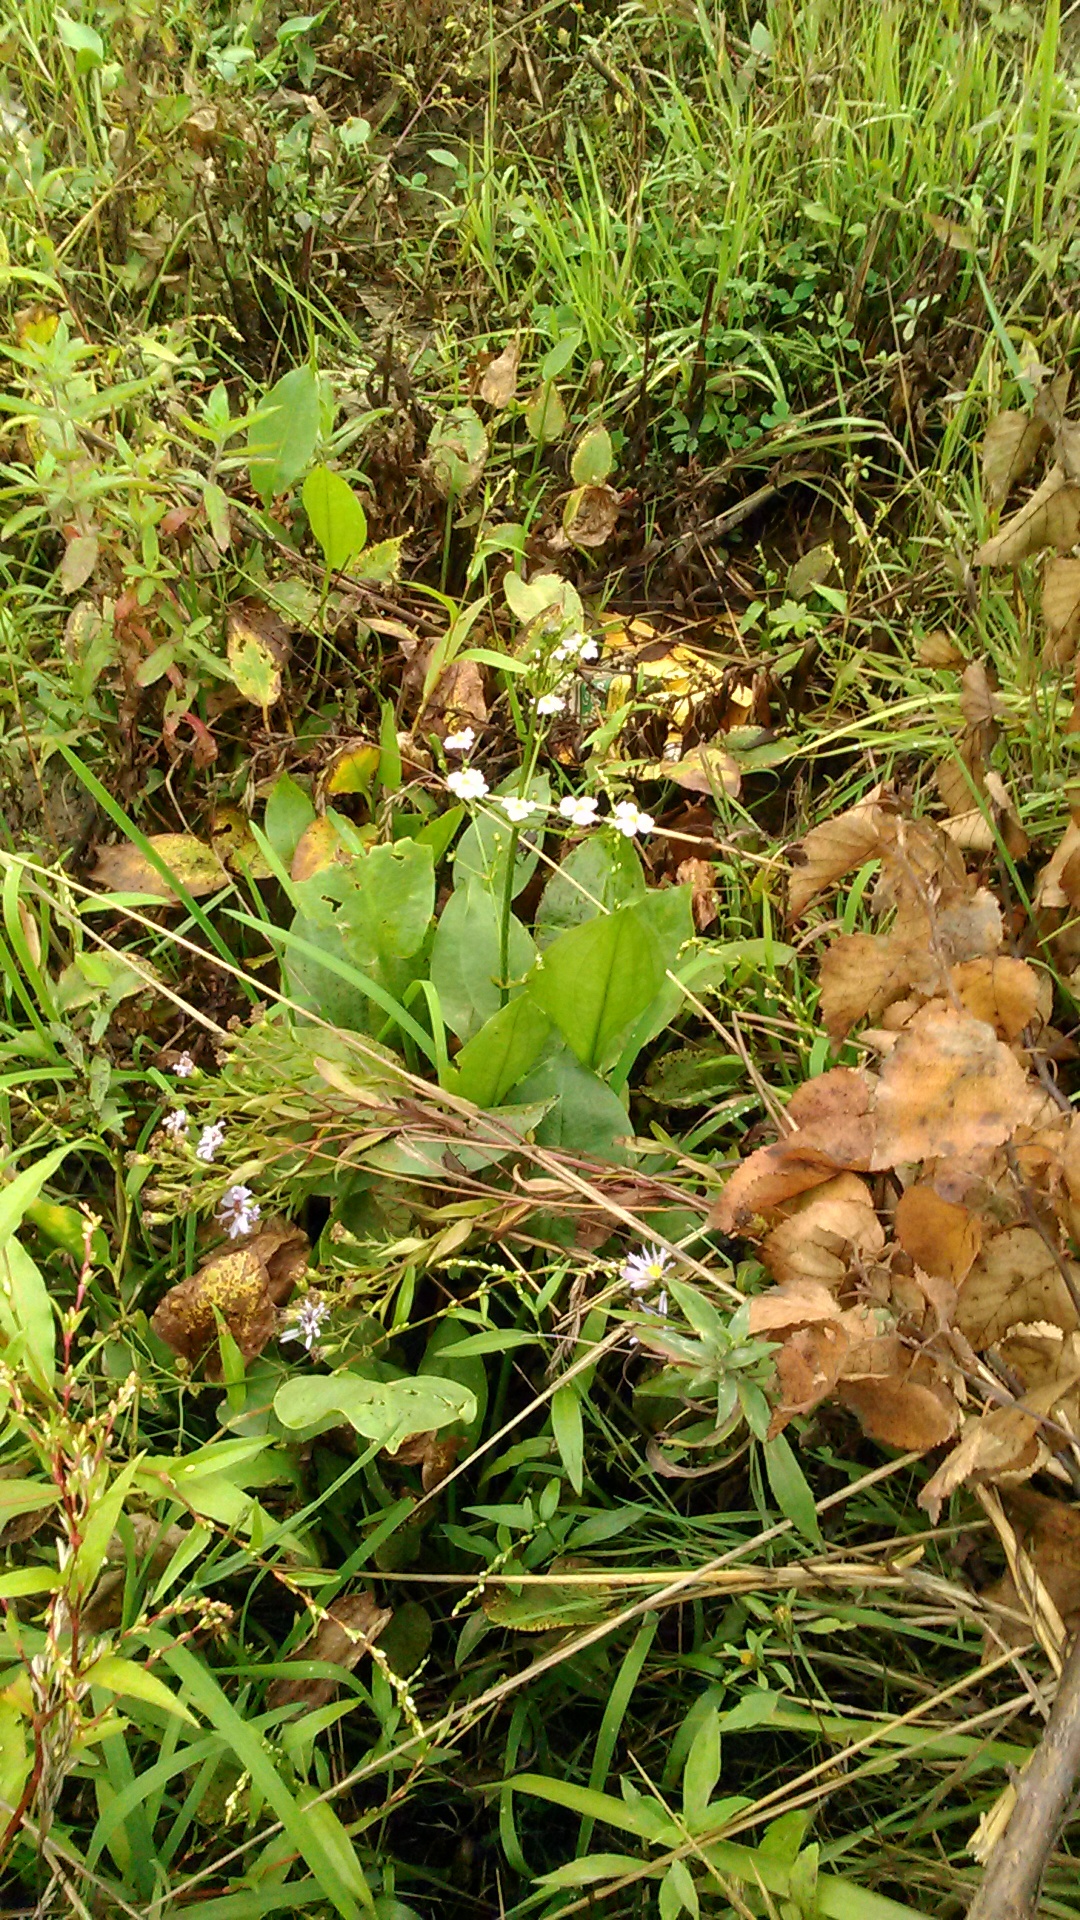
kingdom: Plantae
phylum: Tracheophyta
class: Liliopsida
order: Alismatales
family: Alismataceae
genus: Alisma
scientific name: Alisma plantago-aquatica
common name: Water-plantain
